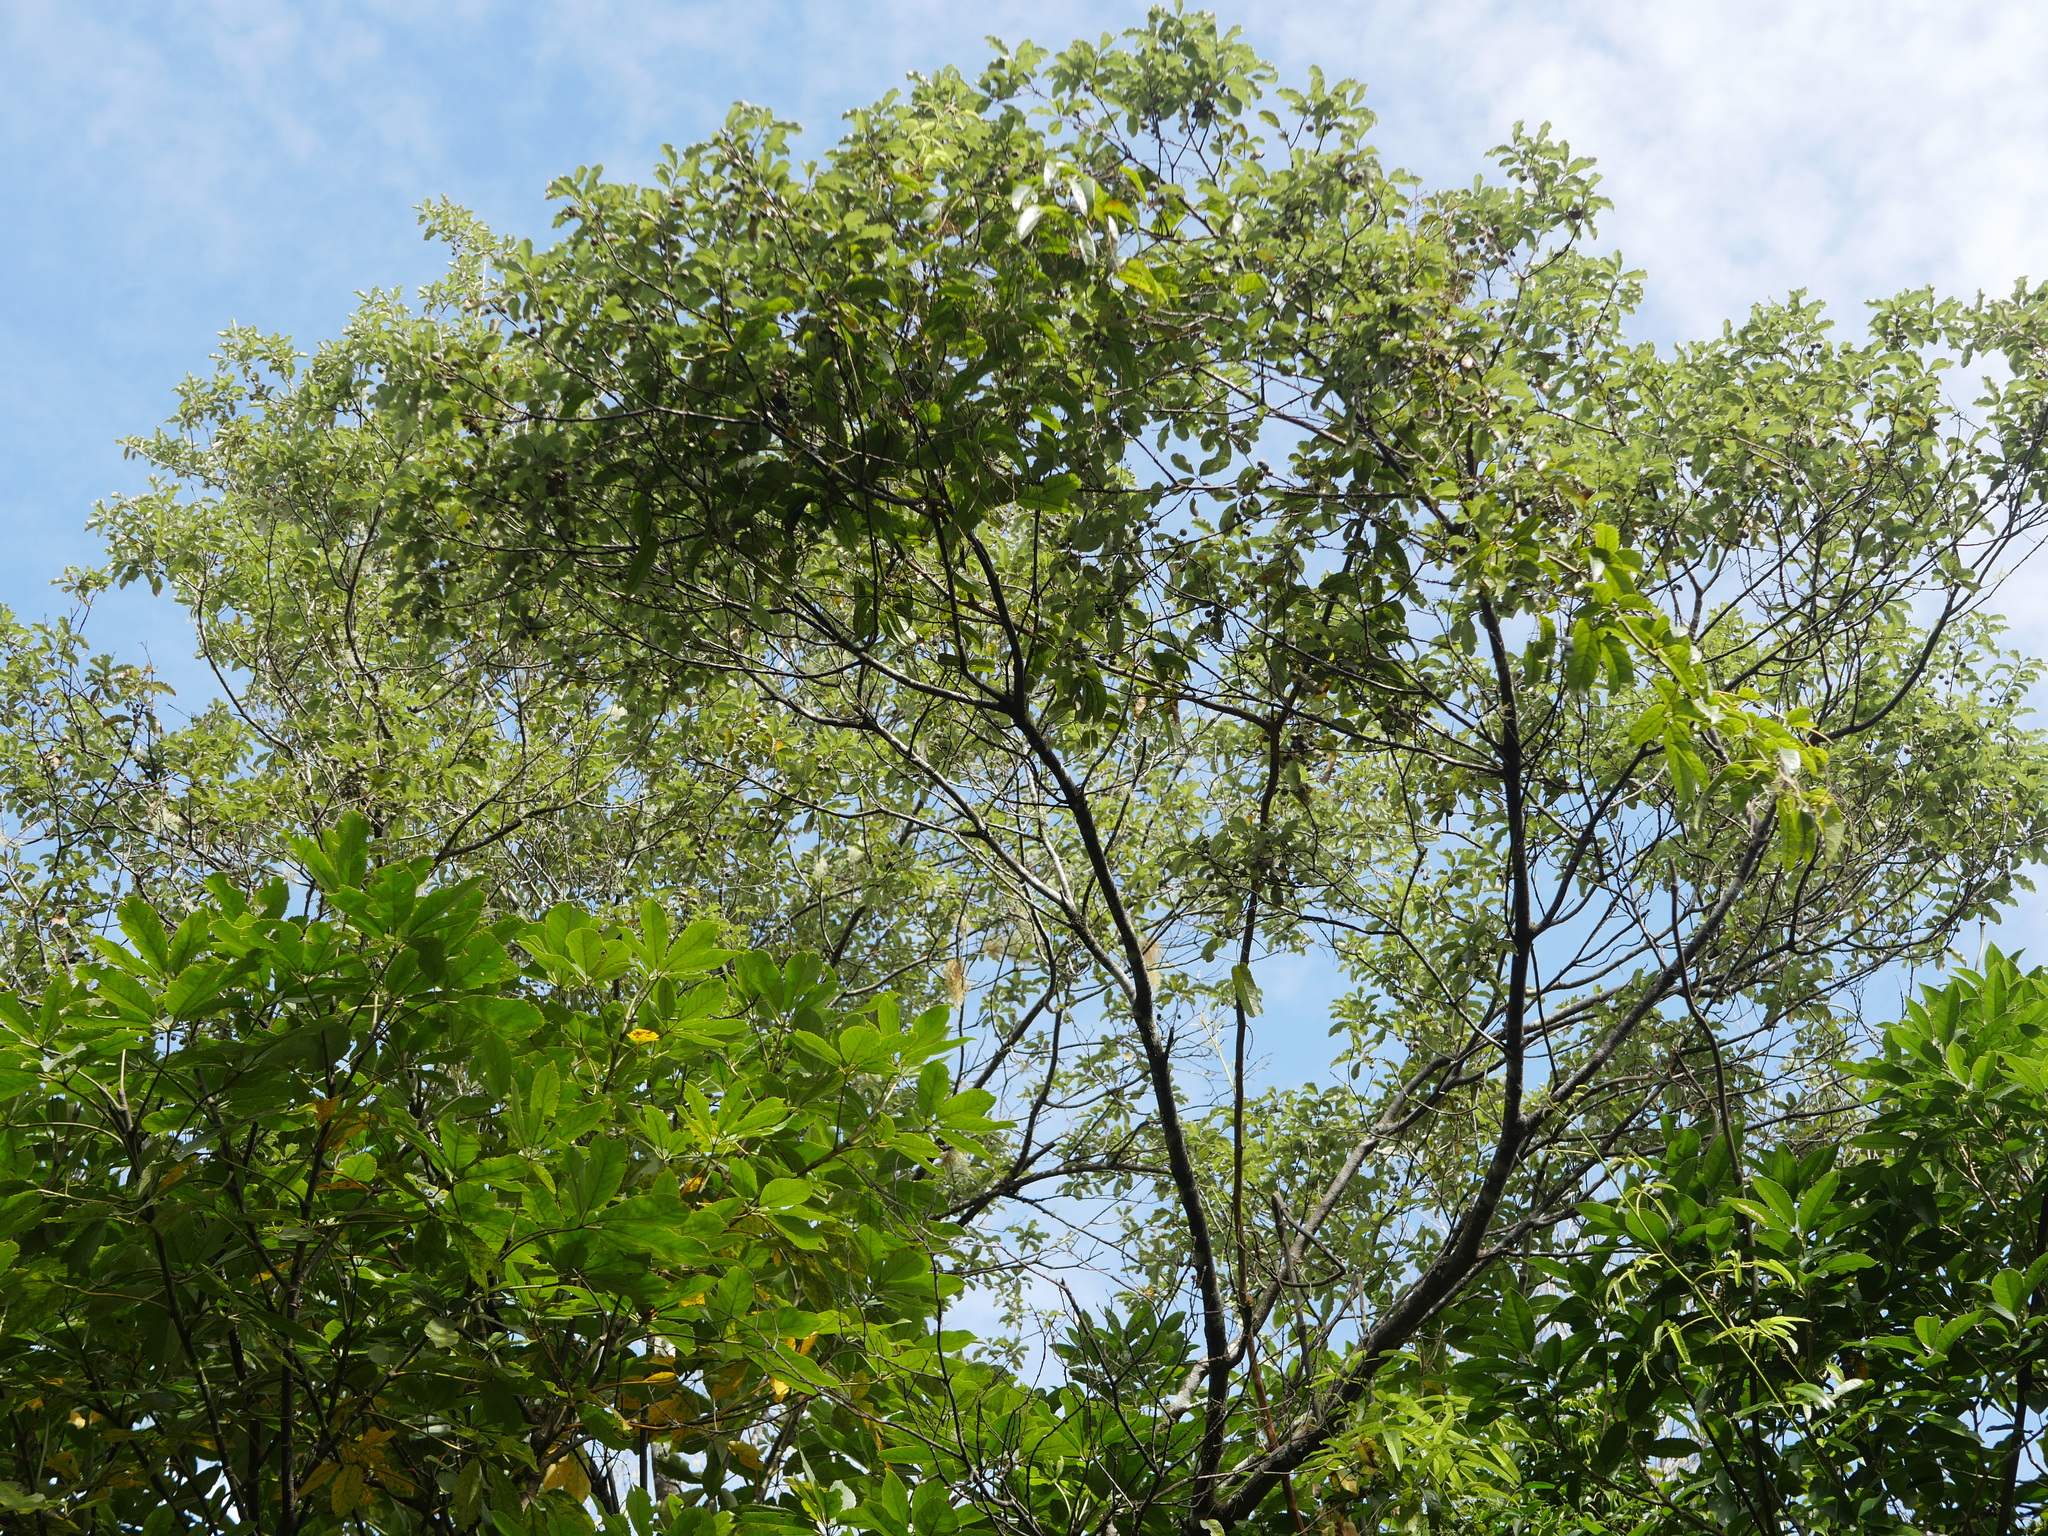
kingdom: Plantae
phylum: Tracheophyta
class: Magnoliopsida
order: Apiales
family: Pittosporaceae
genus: Pittosporum
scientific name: Pittosporum tenuifolium
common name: Kohuhu
